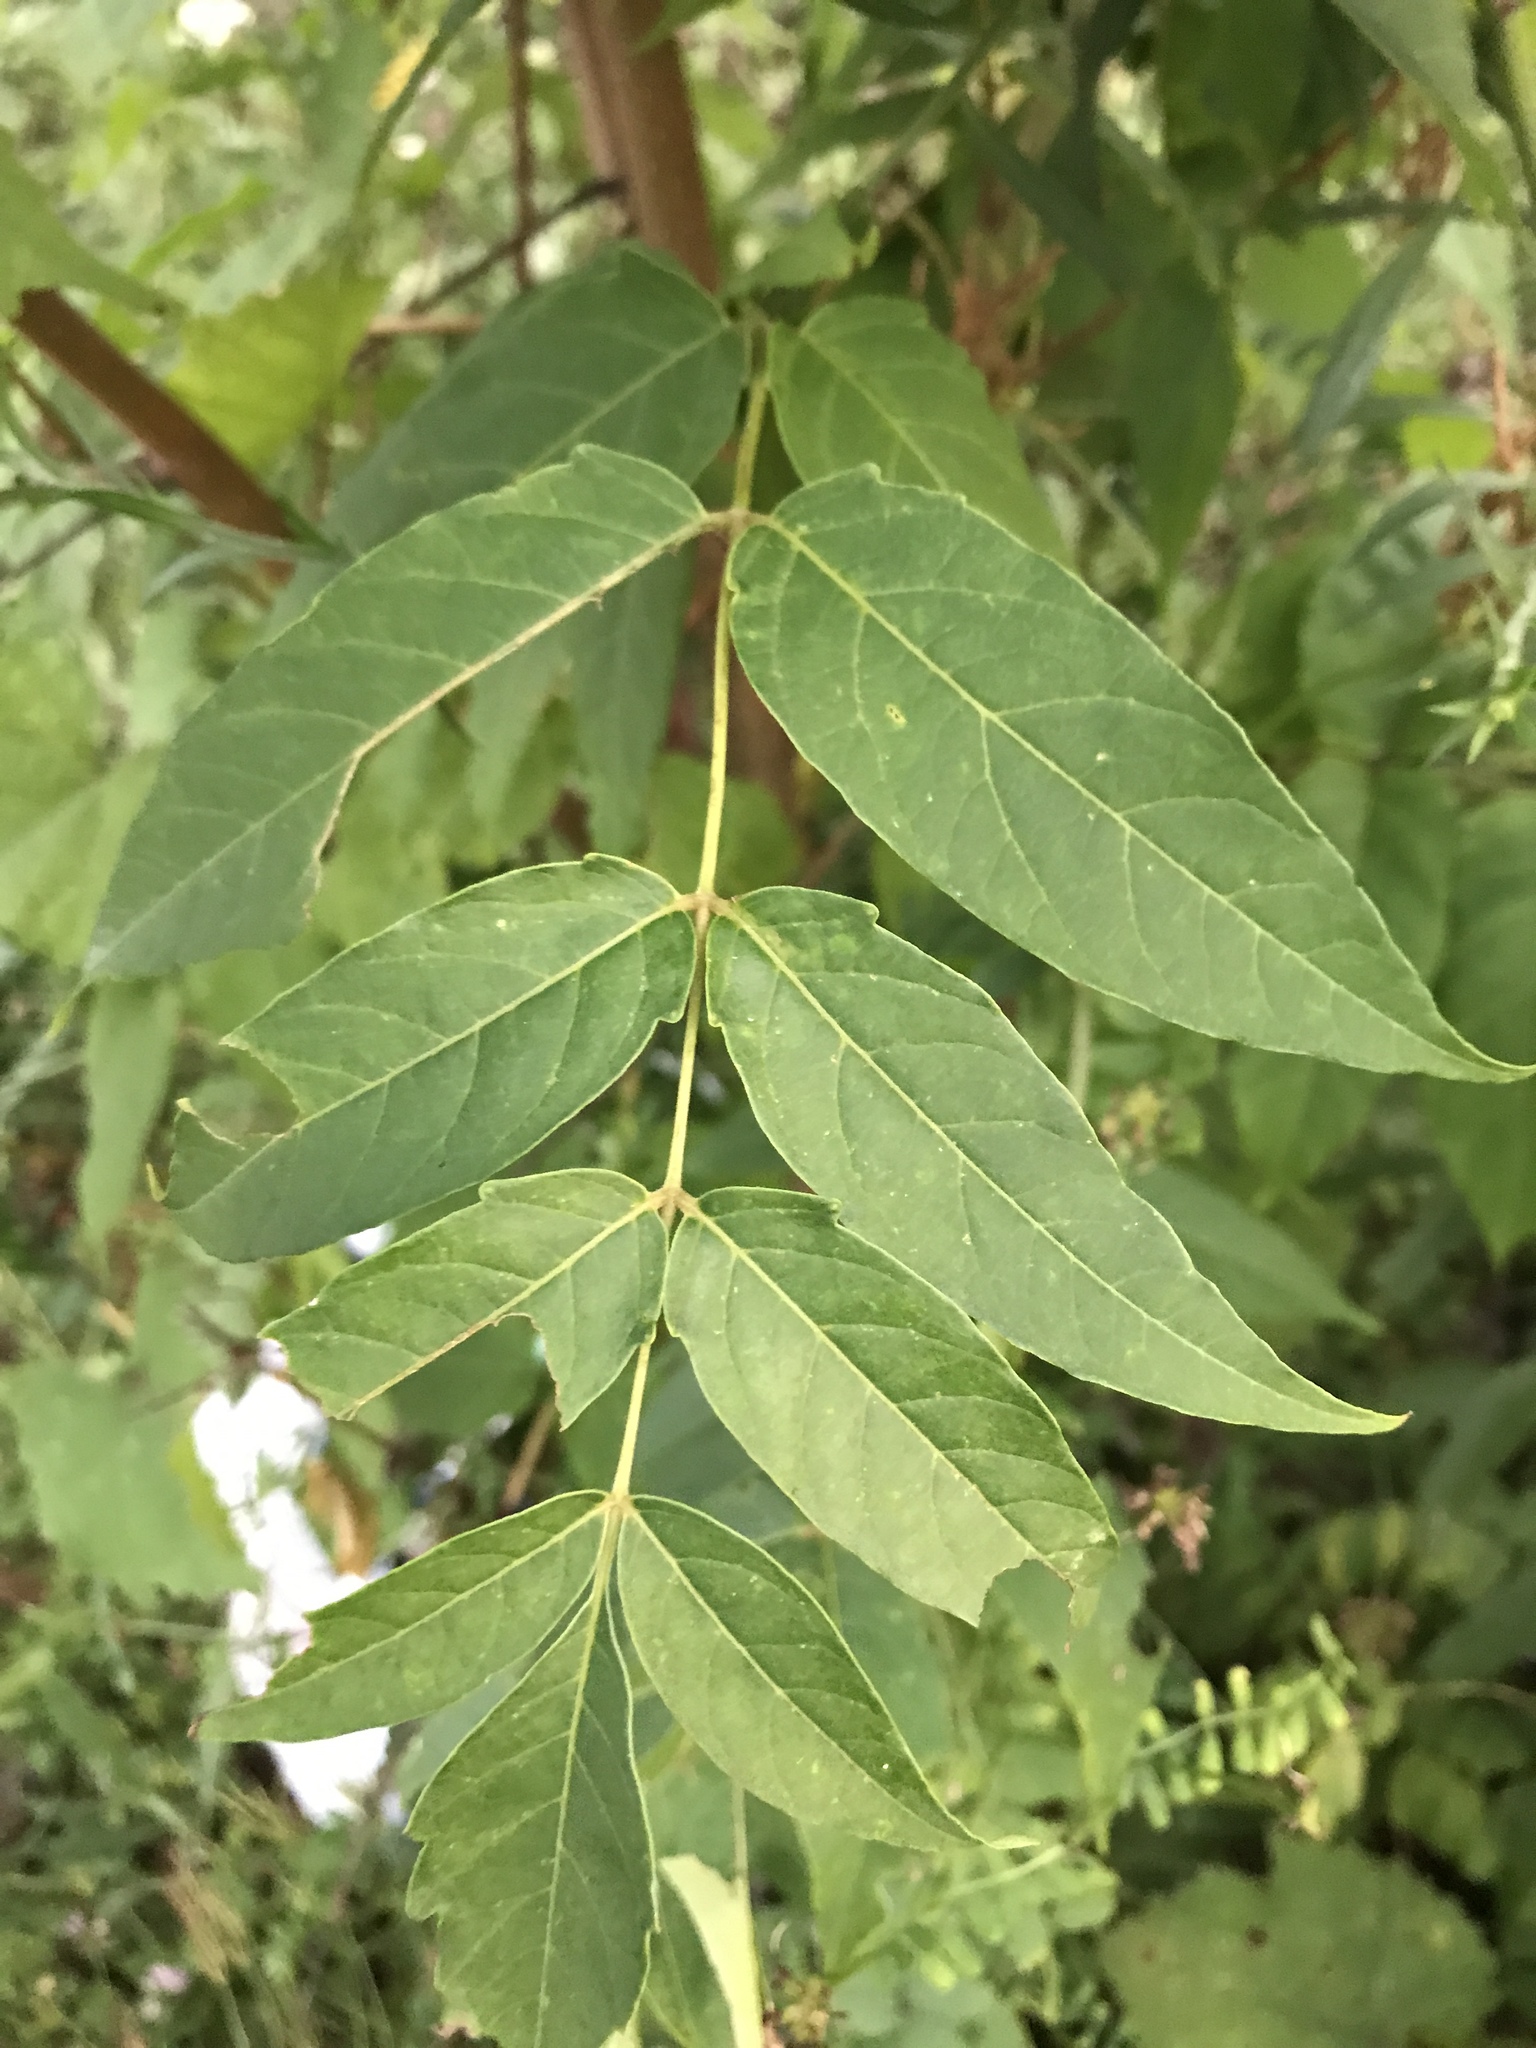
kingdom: Plantae
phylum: Tracheophyta
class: Magnoliopsida
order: Sapindales
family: Simaroubaceae
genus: Ailanthus
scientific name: Ailanthus altissima
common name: Tree-of-heaven
